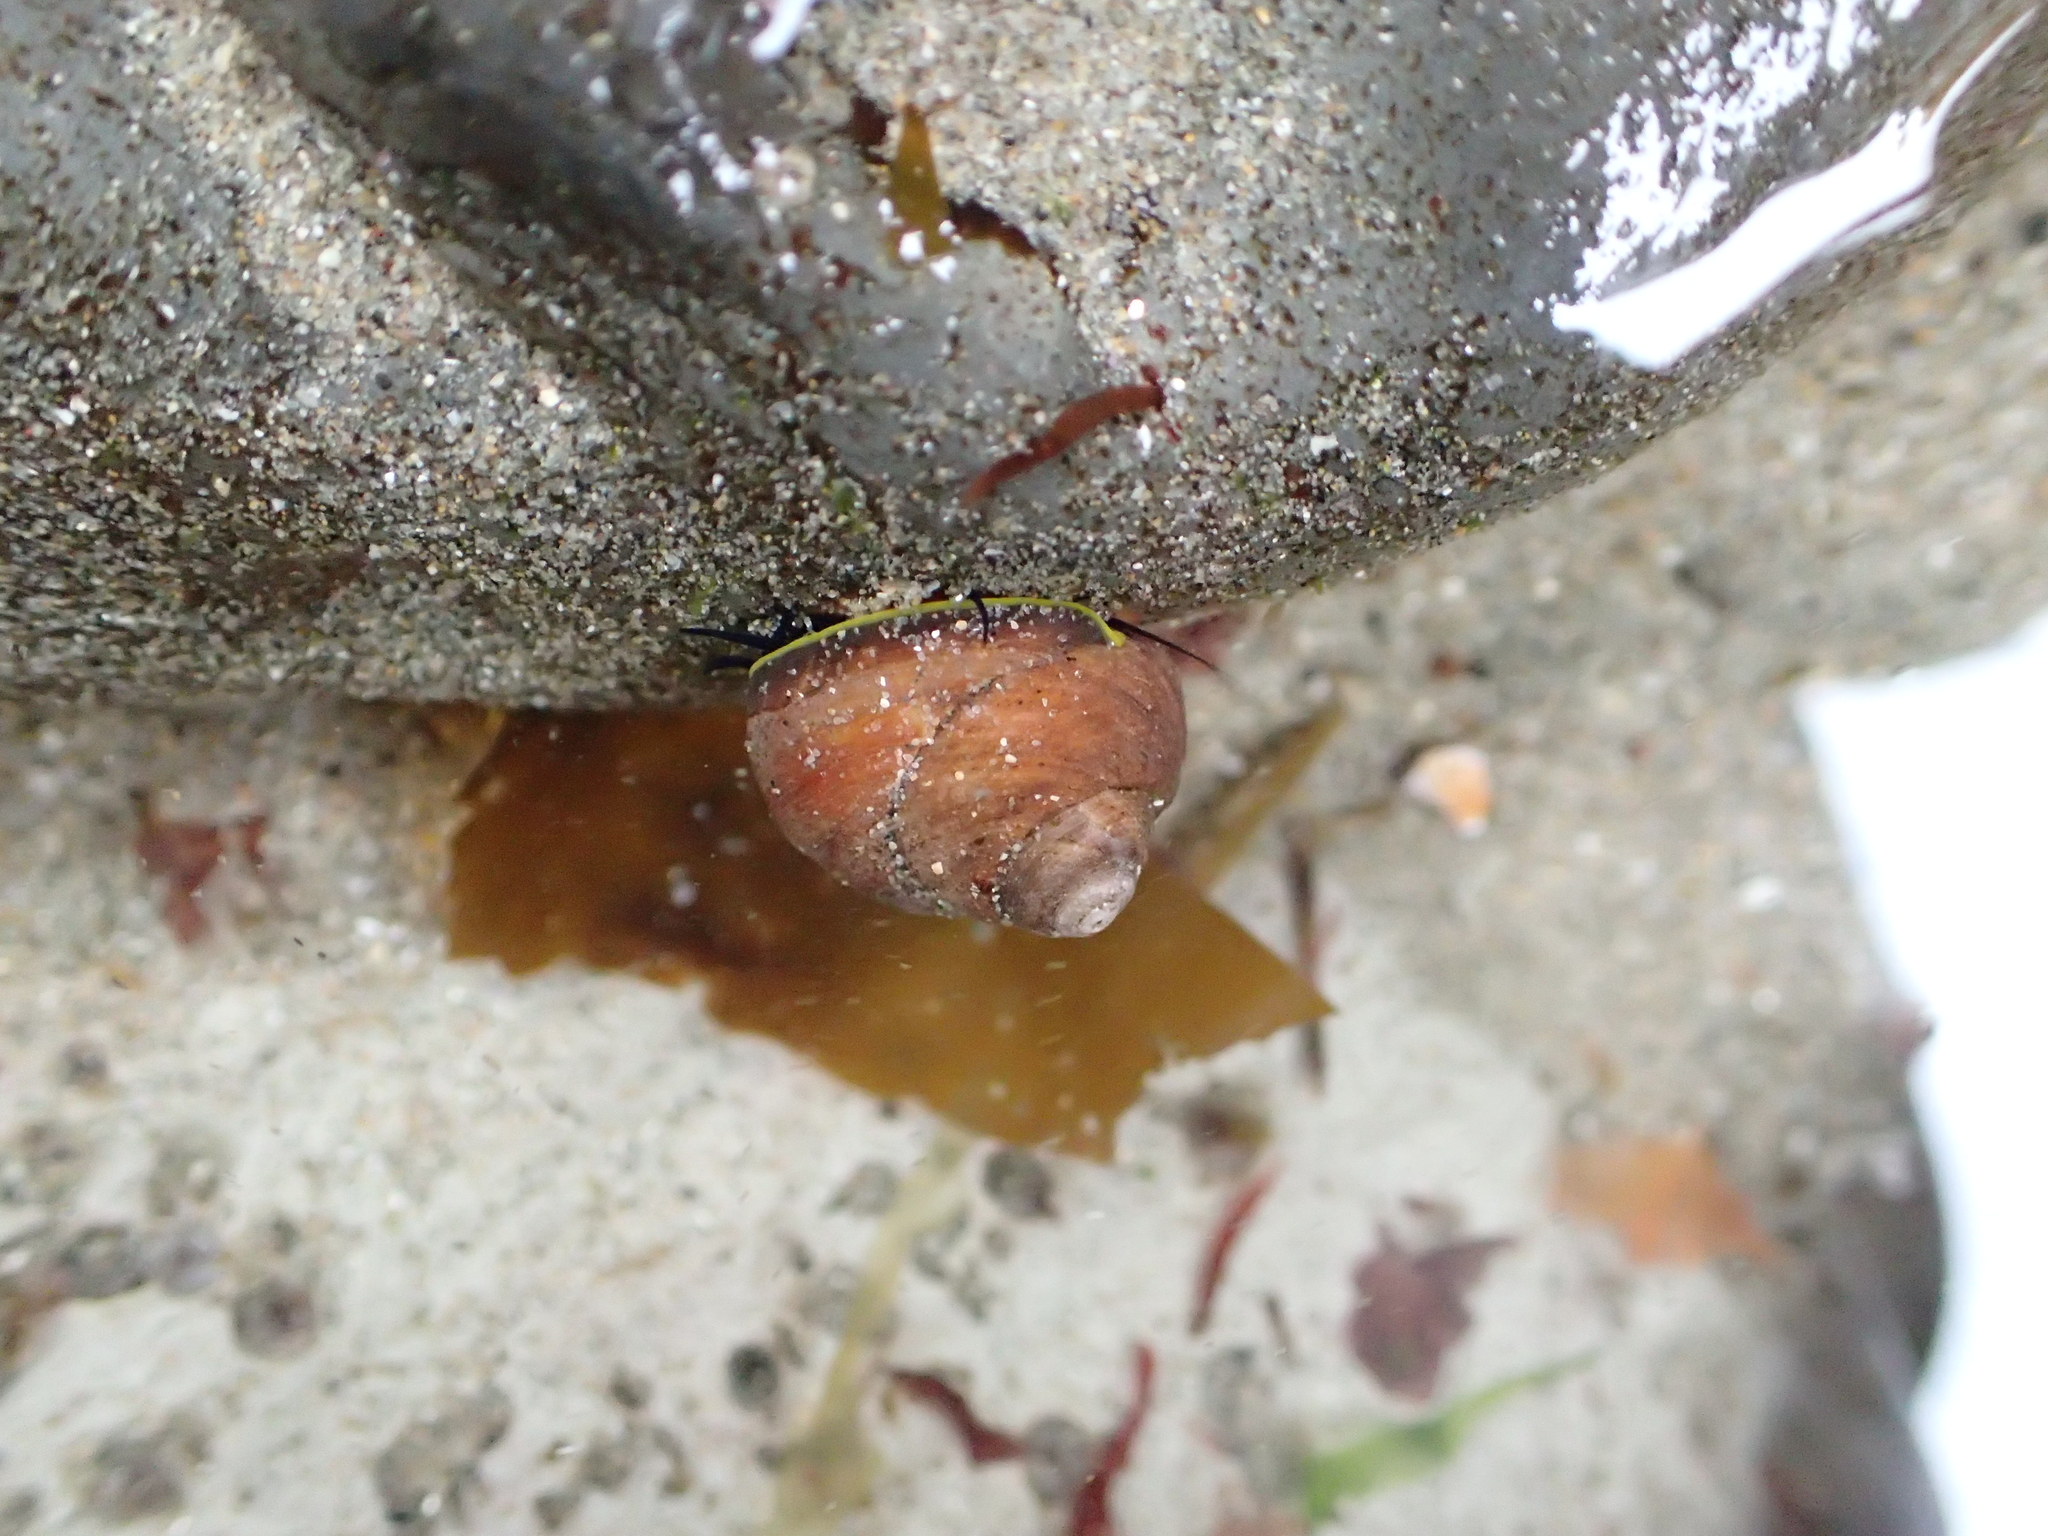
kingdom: Animalia
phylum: Mollusca
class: Gastropoda
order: Trochida
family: Tegulidae
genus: Tegula
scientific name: Tegula brunnea
